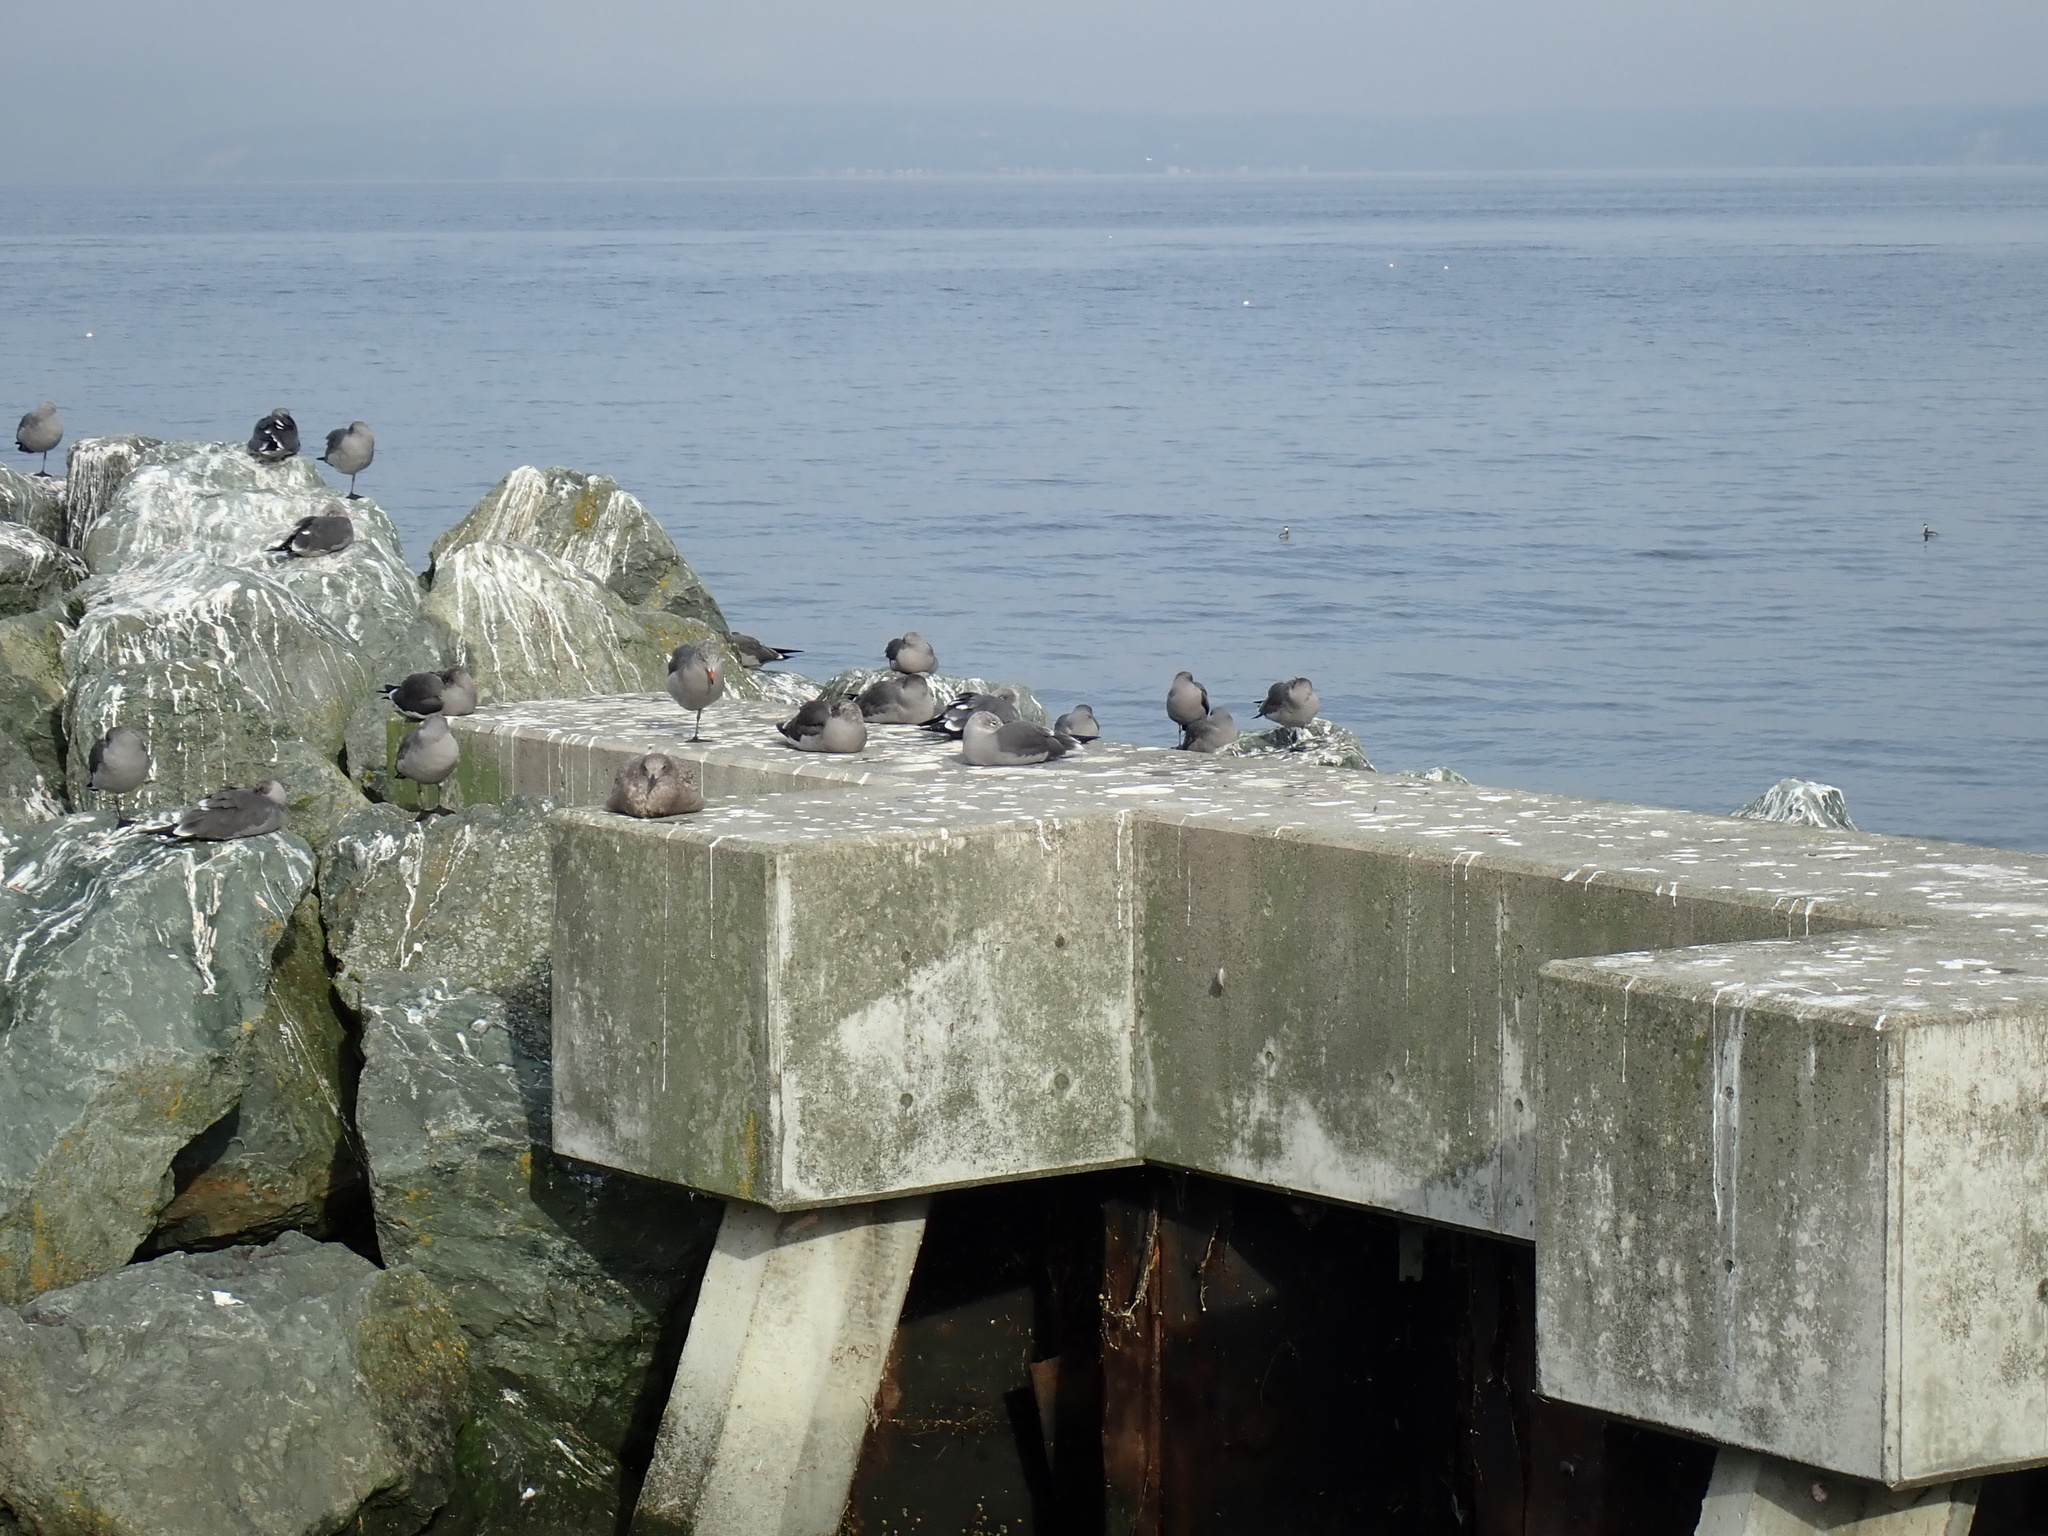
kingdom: Animalia
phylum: Chordata
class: Aves
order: Charadriiformes
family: Laridae
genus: Larus
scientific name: Larus heermanni
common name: Heermann's gull
